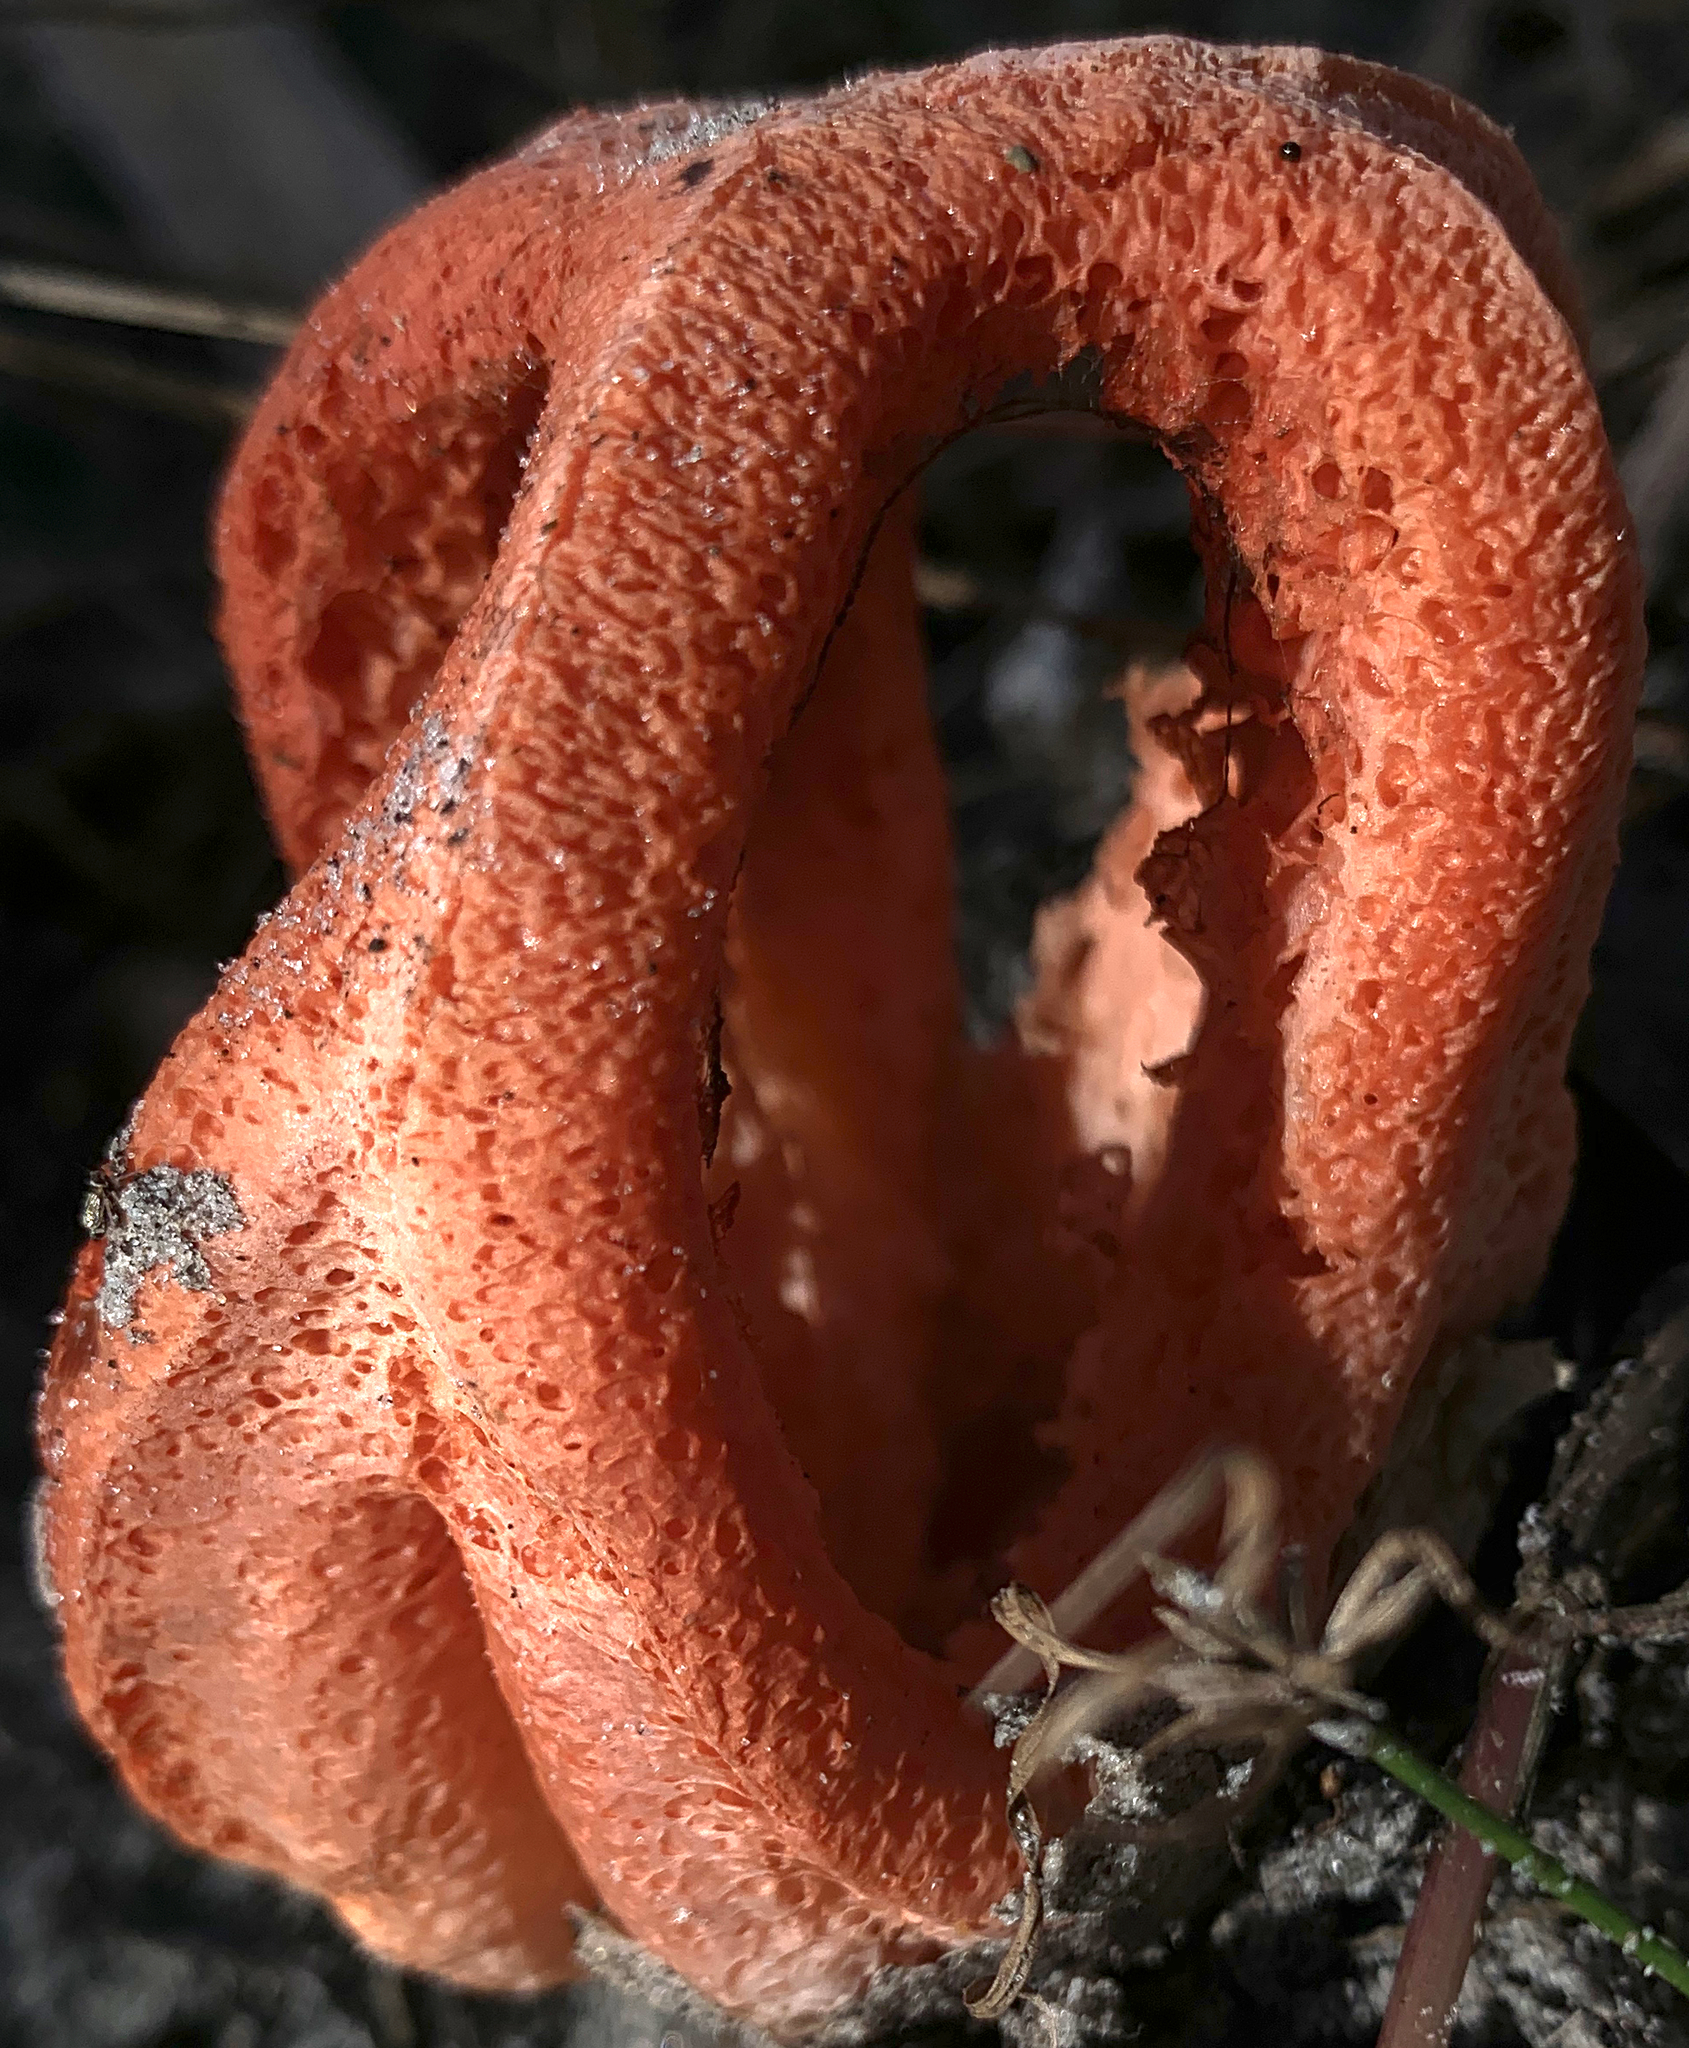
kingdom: Fungi
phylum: Basidiomycota
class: Agaricomycetes
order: Phallales
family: Phallaceae
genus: Clathrus
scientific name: Clathrus columnatus
